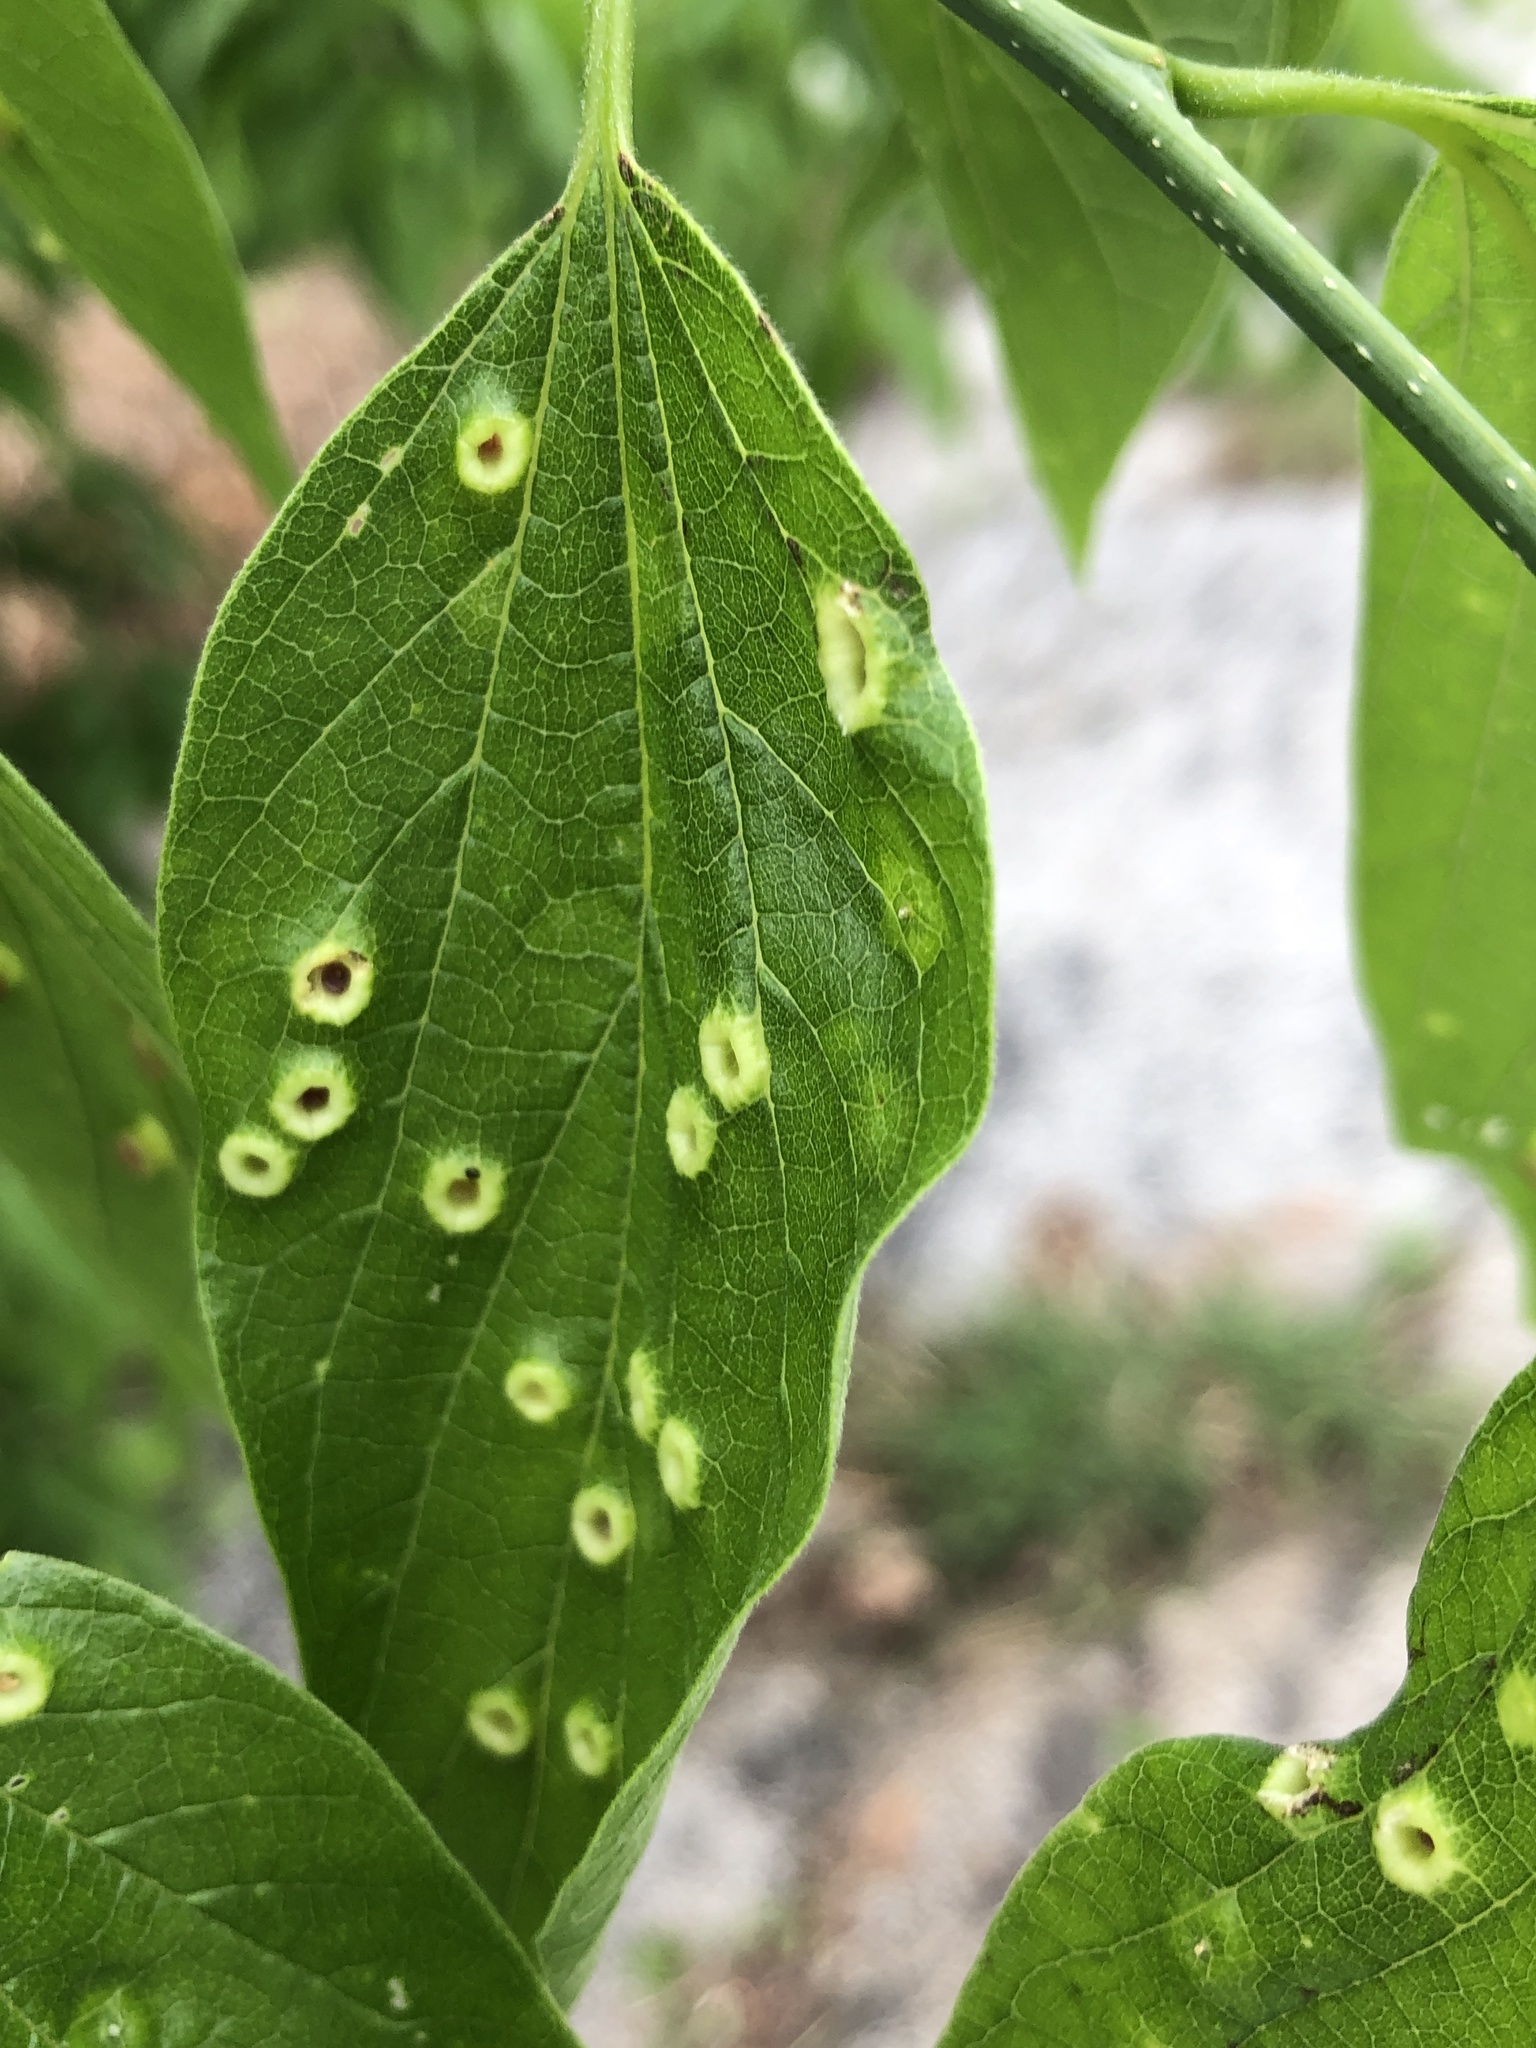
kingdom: Animalia
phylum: Arthropoda
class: Insecta
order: Hemiptera
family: Aphalaridae
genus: Pachypsylla
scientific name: Pachypsylla celtidismamma
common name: Hackberry nipplegall psyllid
